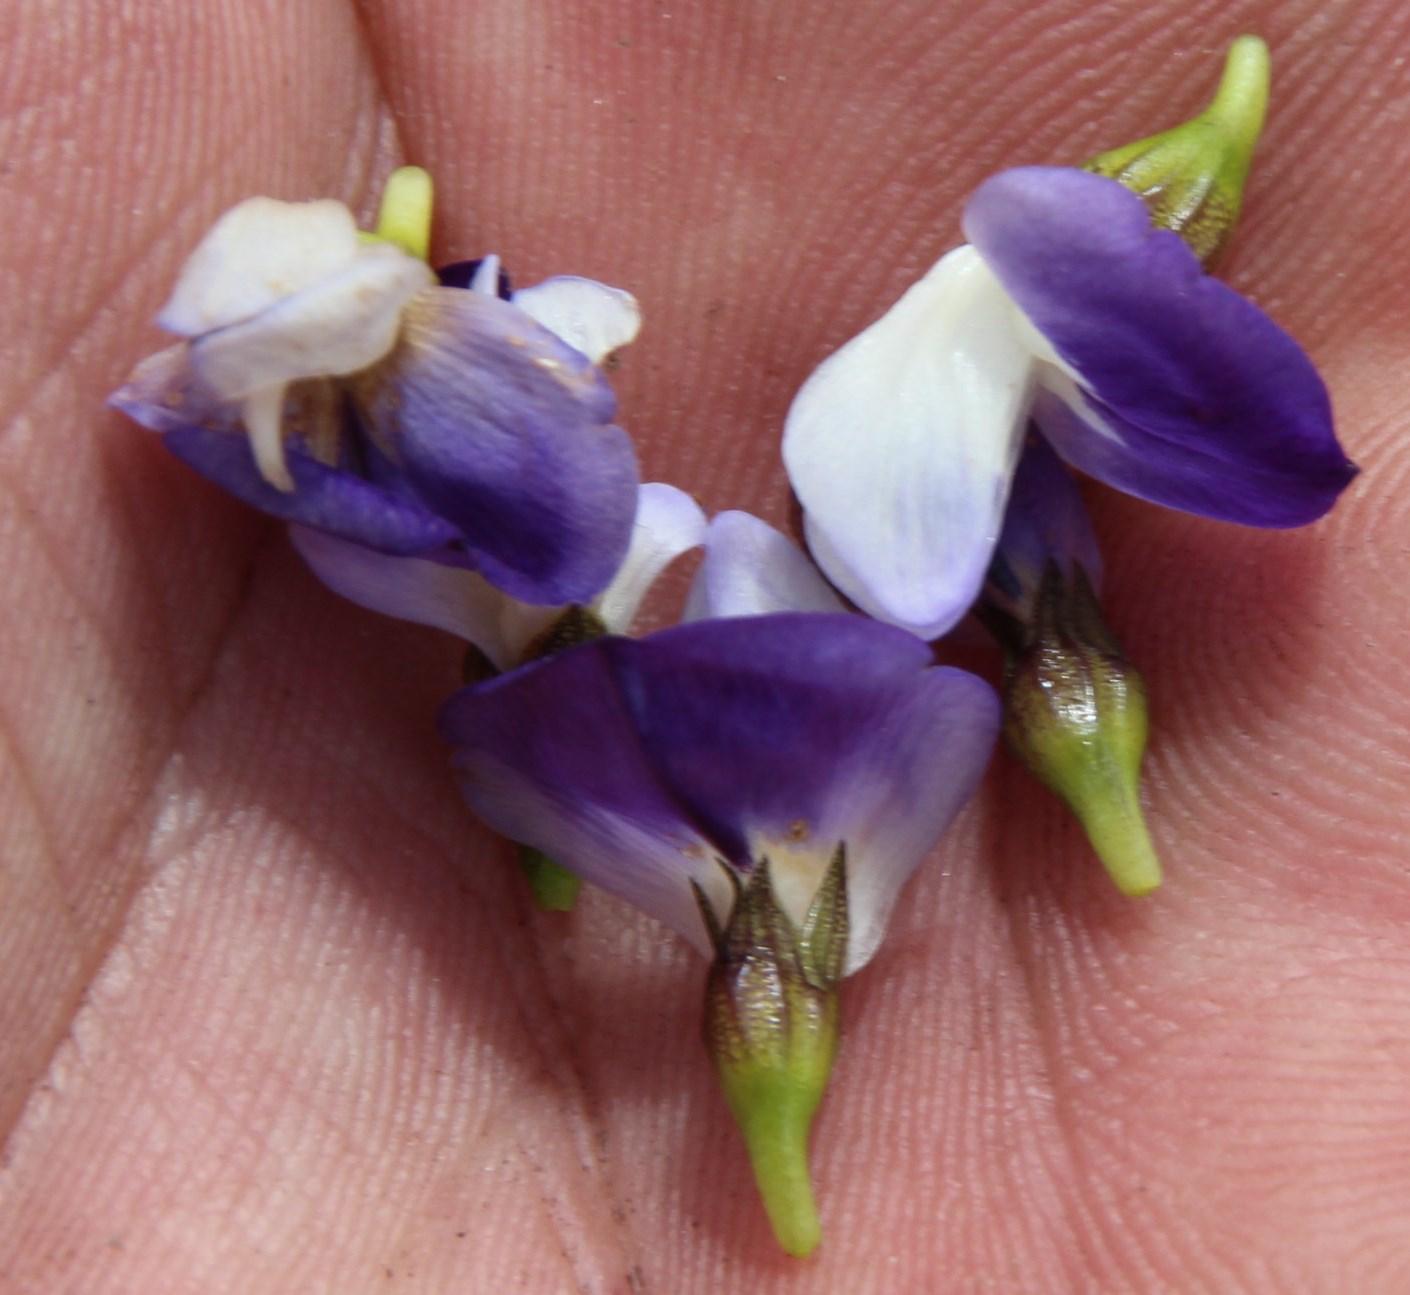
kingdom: Plantae
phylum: Tracheophyta
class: Magnoliopsida
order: Fabales
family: Fabaceae
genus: Psoralea
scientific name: Psoralea rigidula
